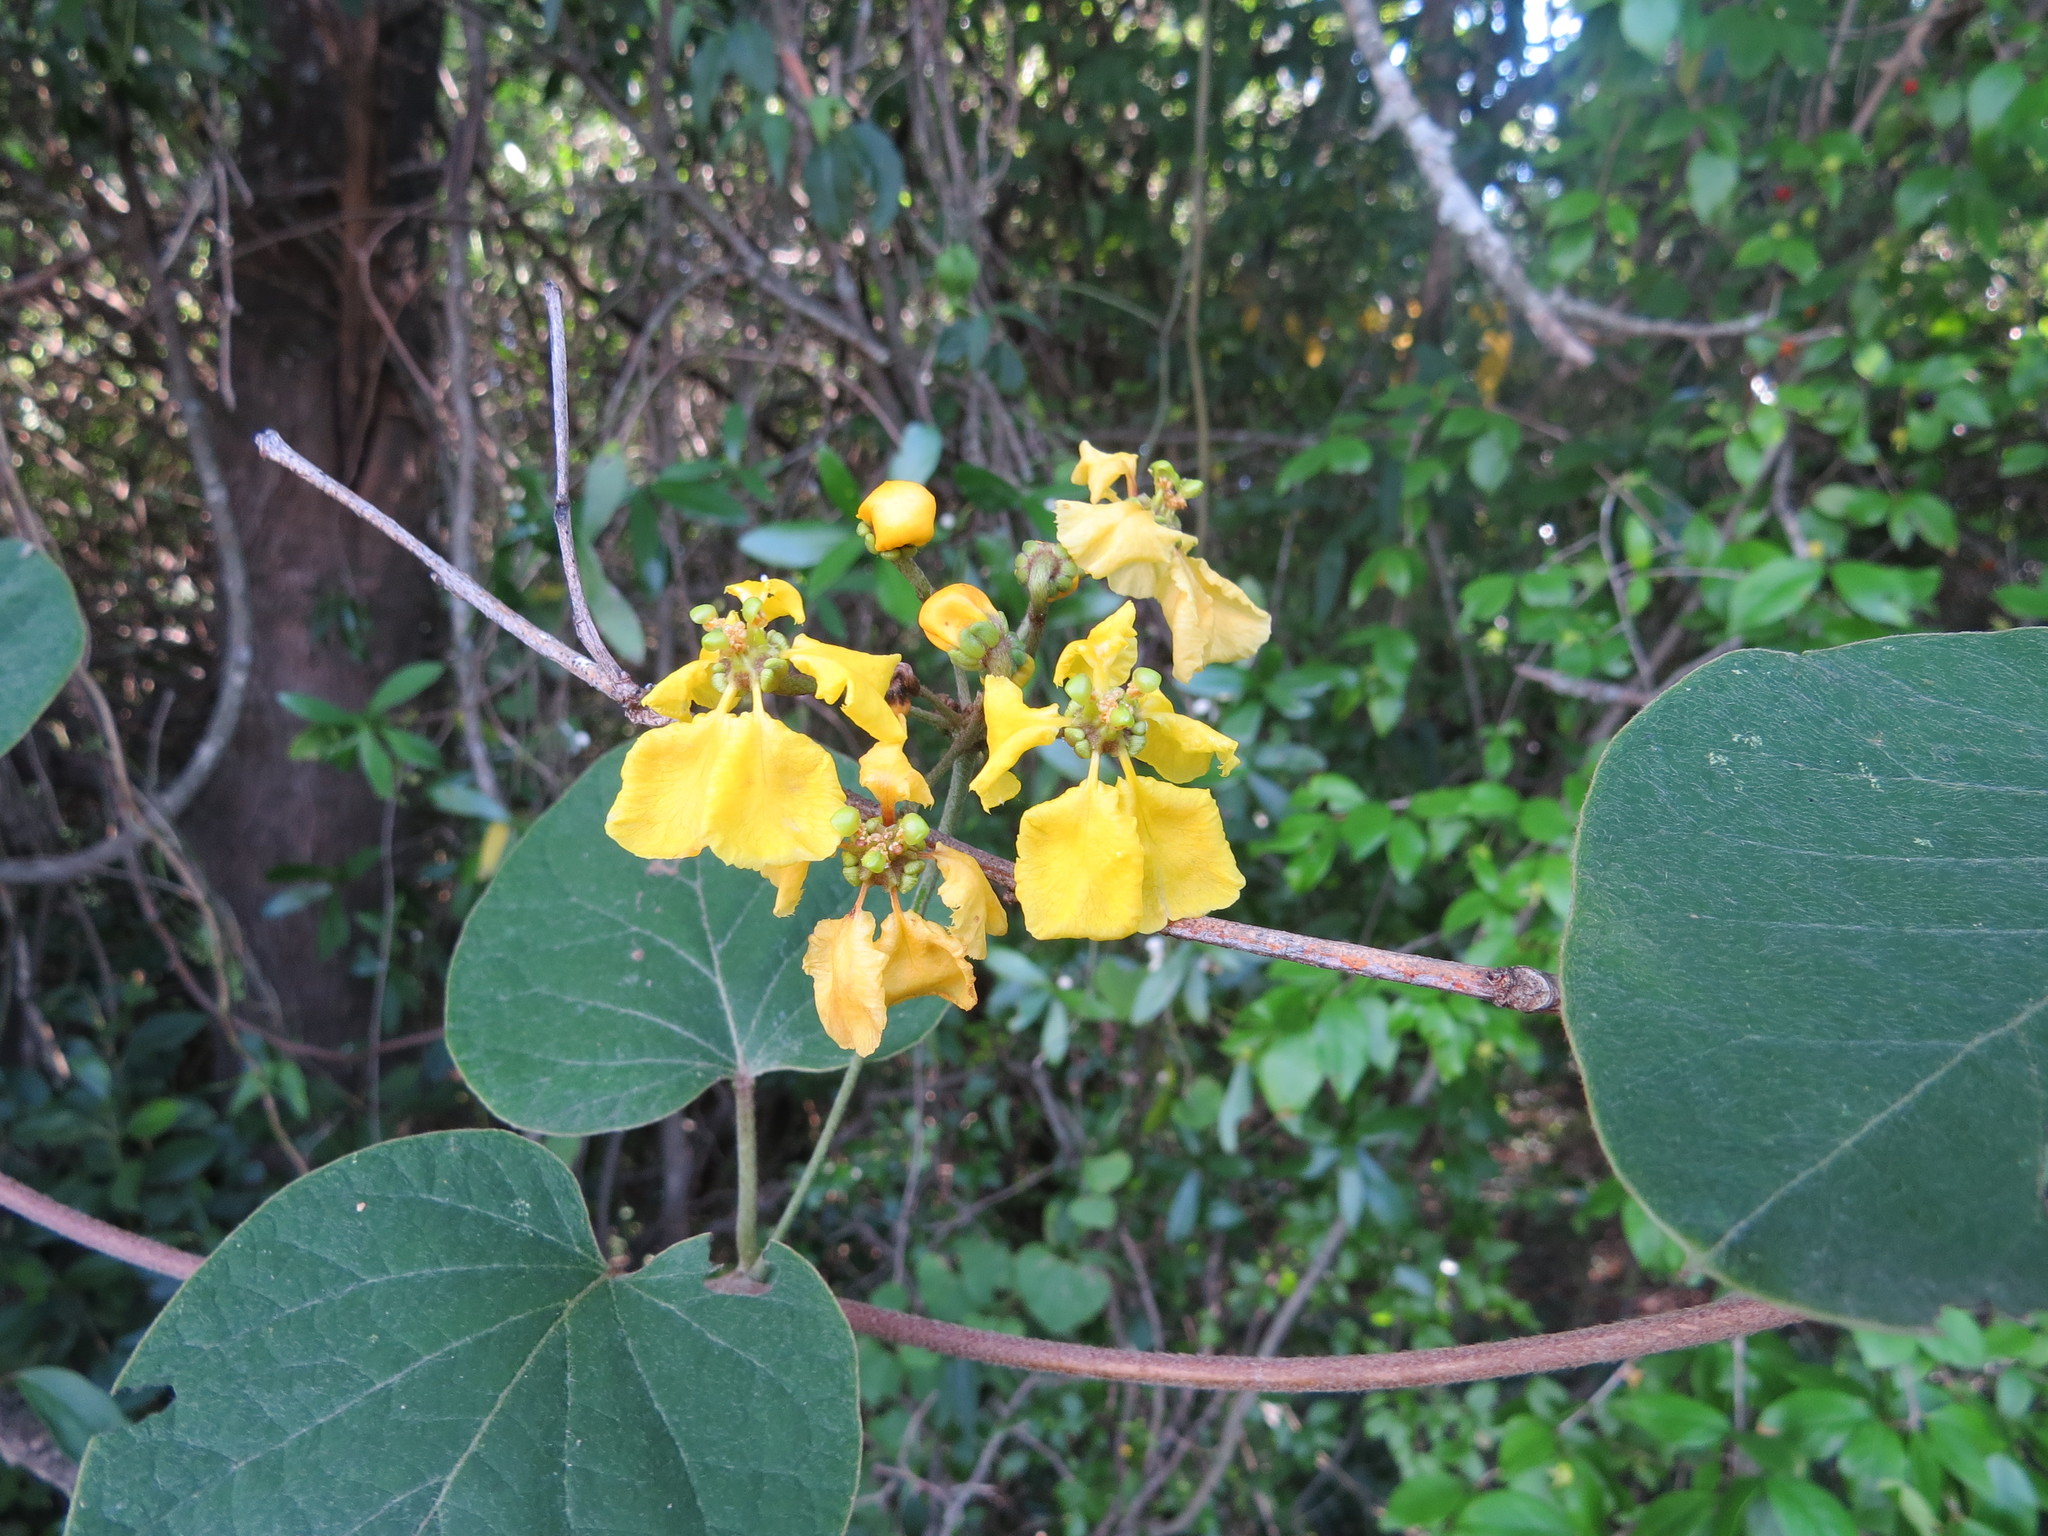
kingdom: Plantae
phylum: Tracheophyta
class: Magnoliopsida
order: Malpighiales
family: Malpighiaceae
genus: Stigmaphyllon
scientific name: Stigmaphyllon bonariense
